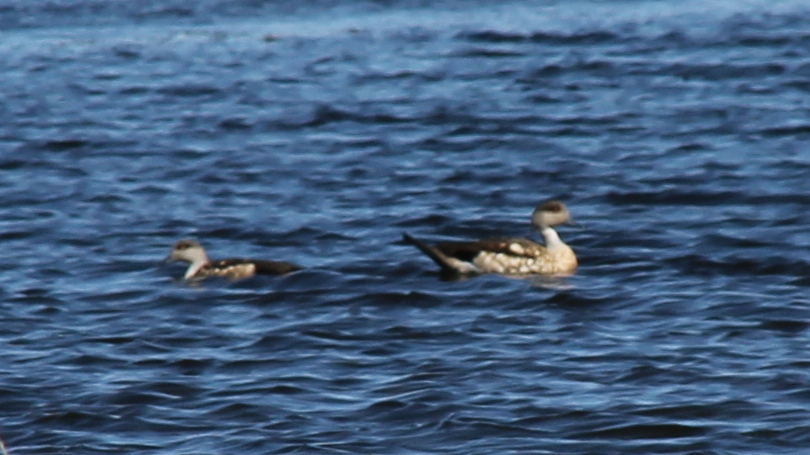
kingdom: Animalia
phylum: Chordata
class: Aves
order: Anseriformes
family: Anatidae
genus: Lophonetta
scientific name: Lophonetta specularioides
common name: Crested duck
